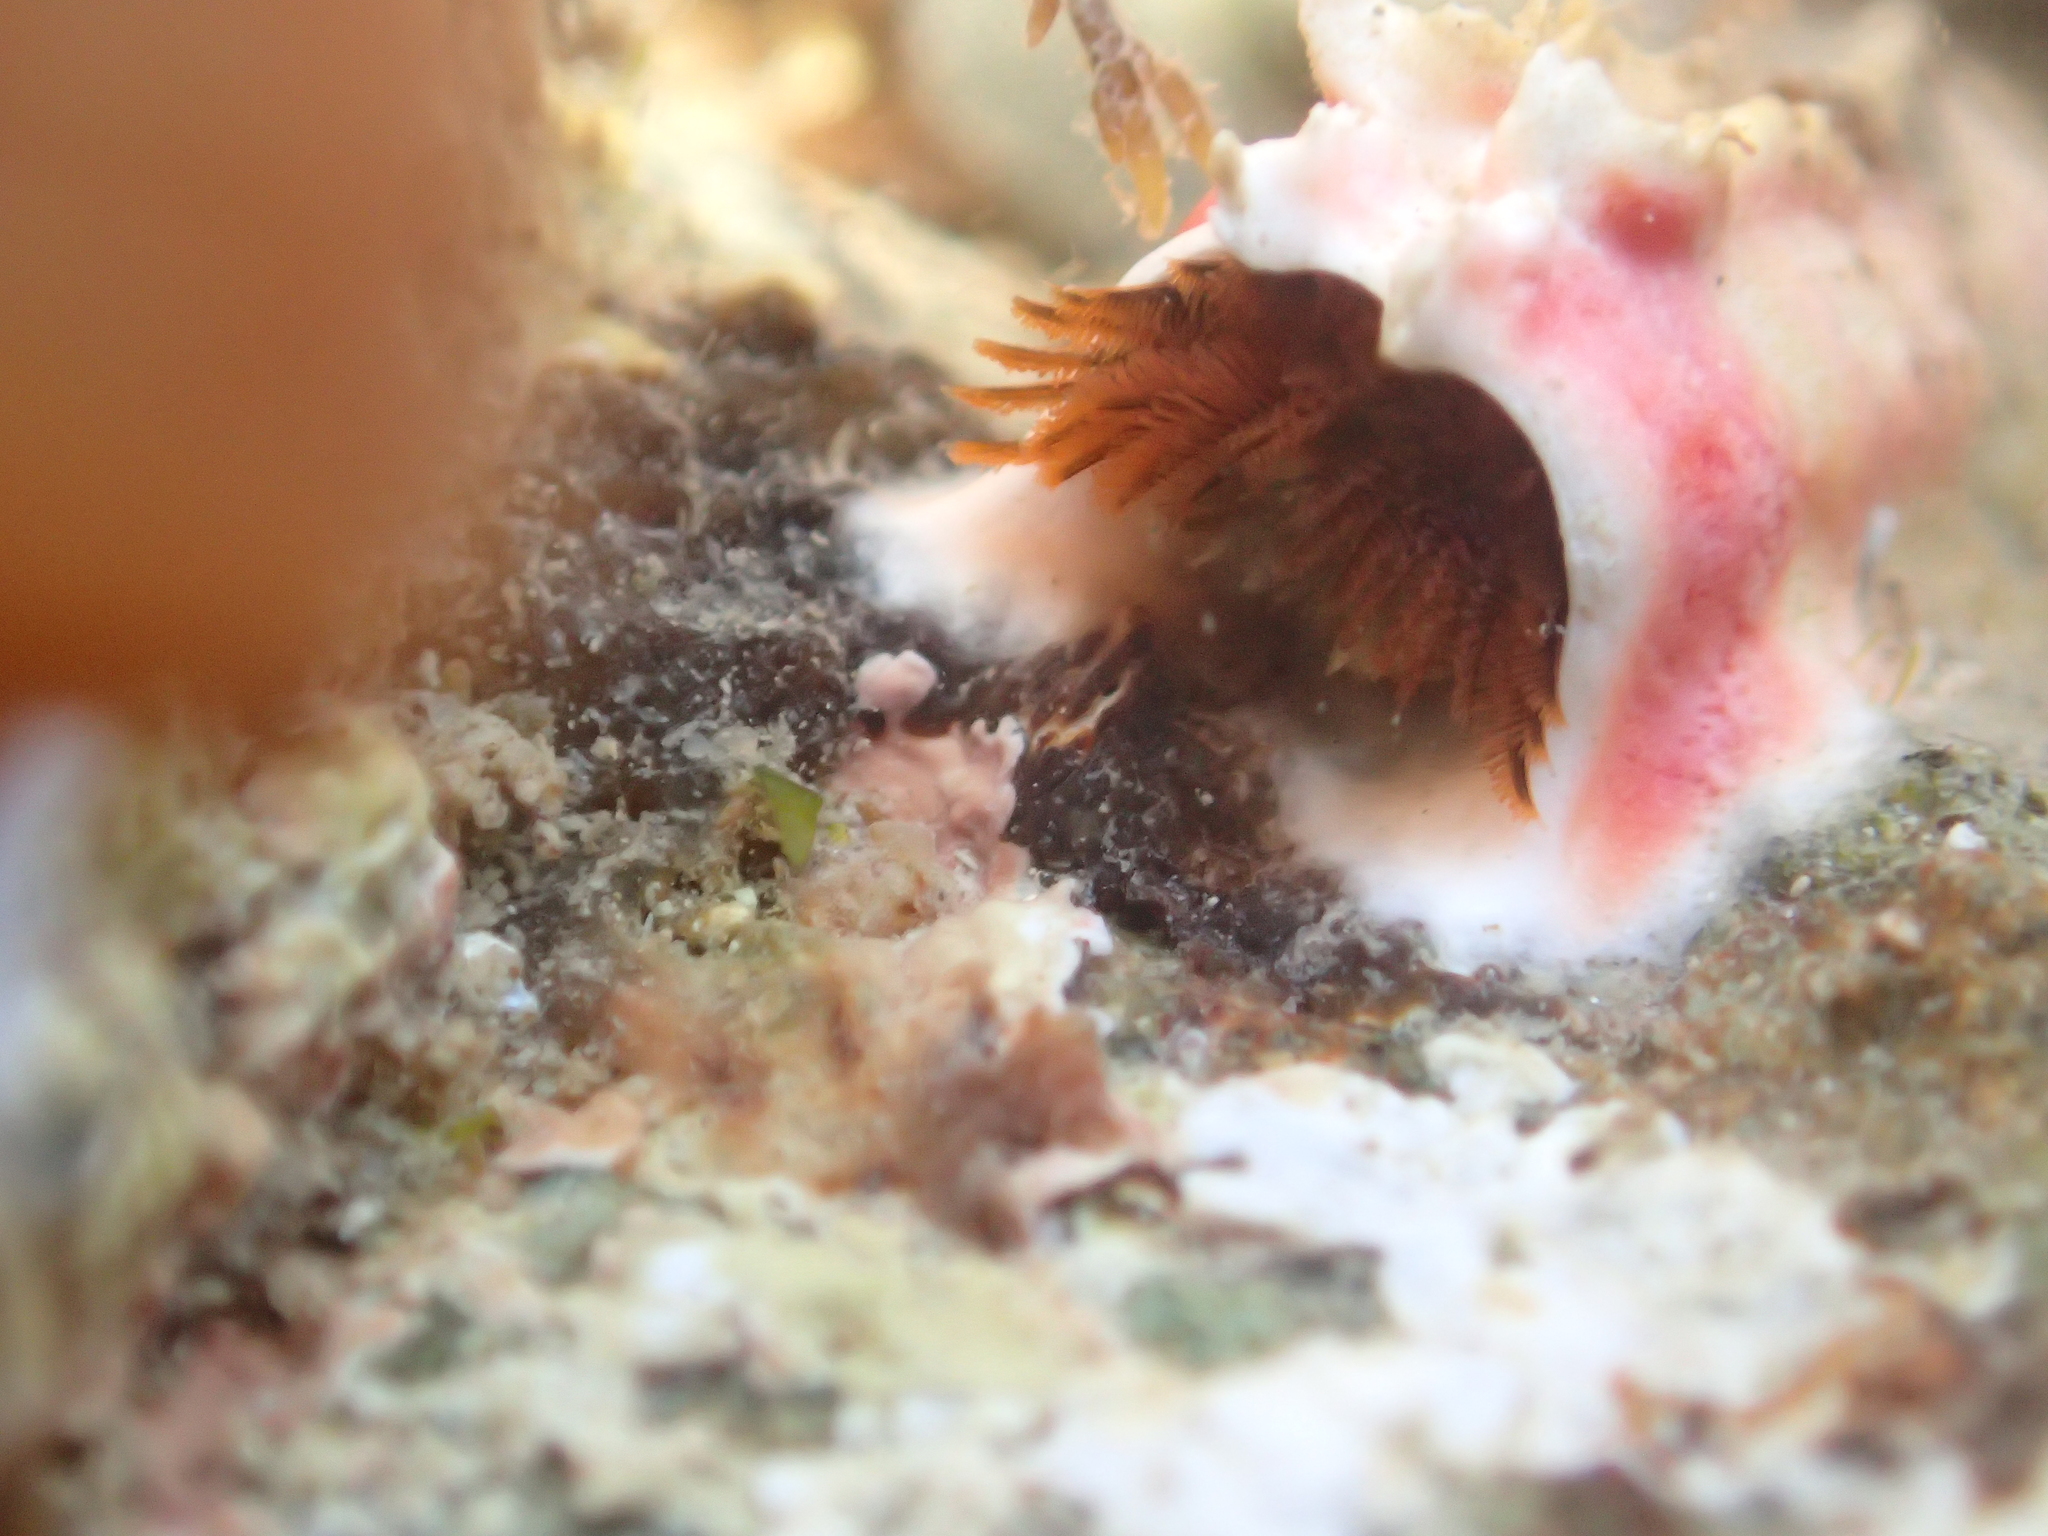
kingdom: Animalia
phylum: Annelida
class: Polychaeta
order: Sabellida
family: Serpulidae
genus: Galeolaria
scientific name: Galeolaria hystrix
